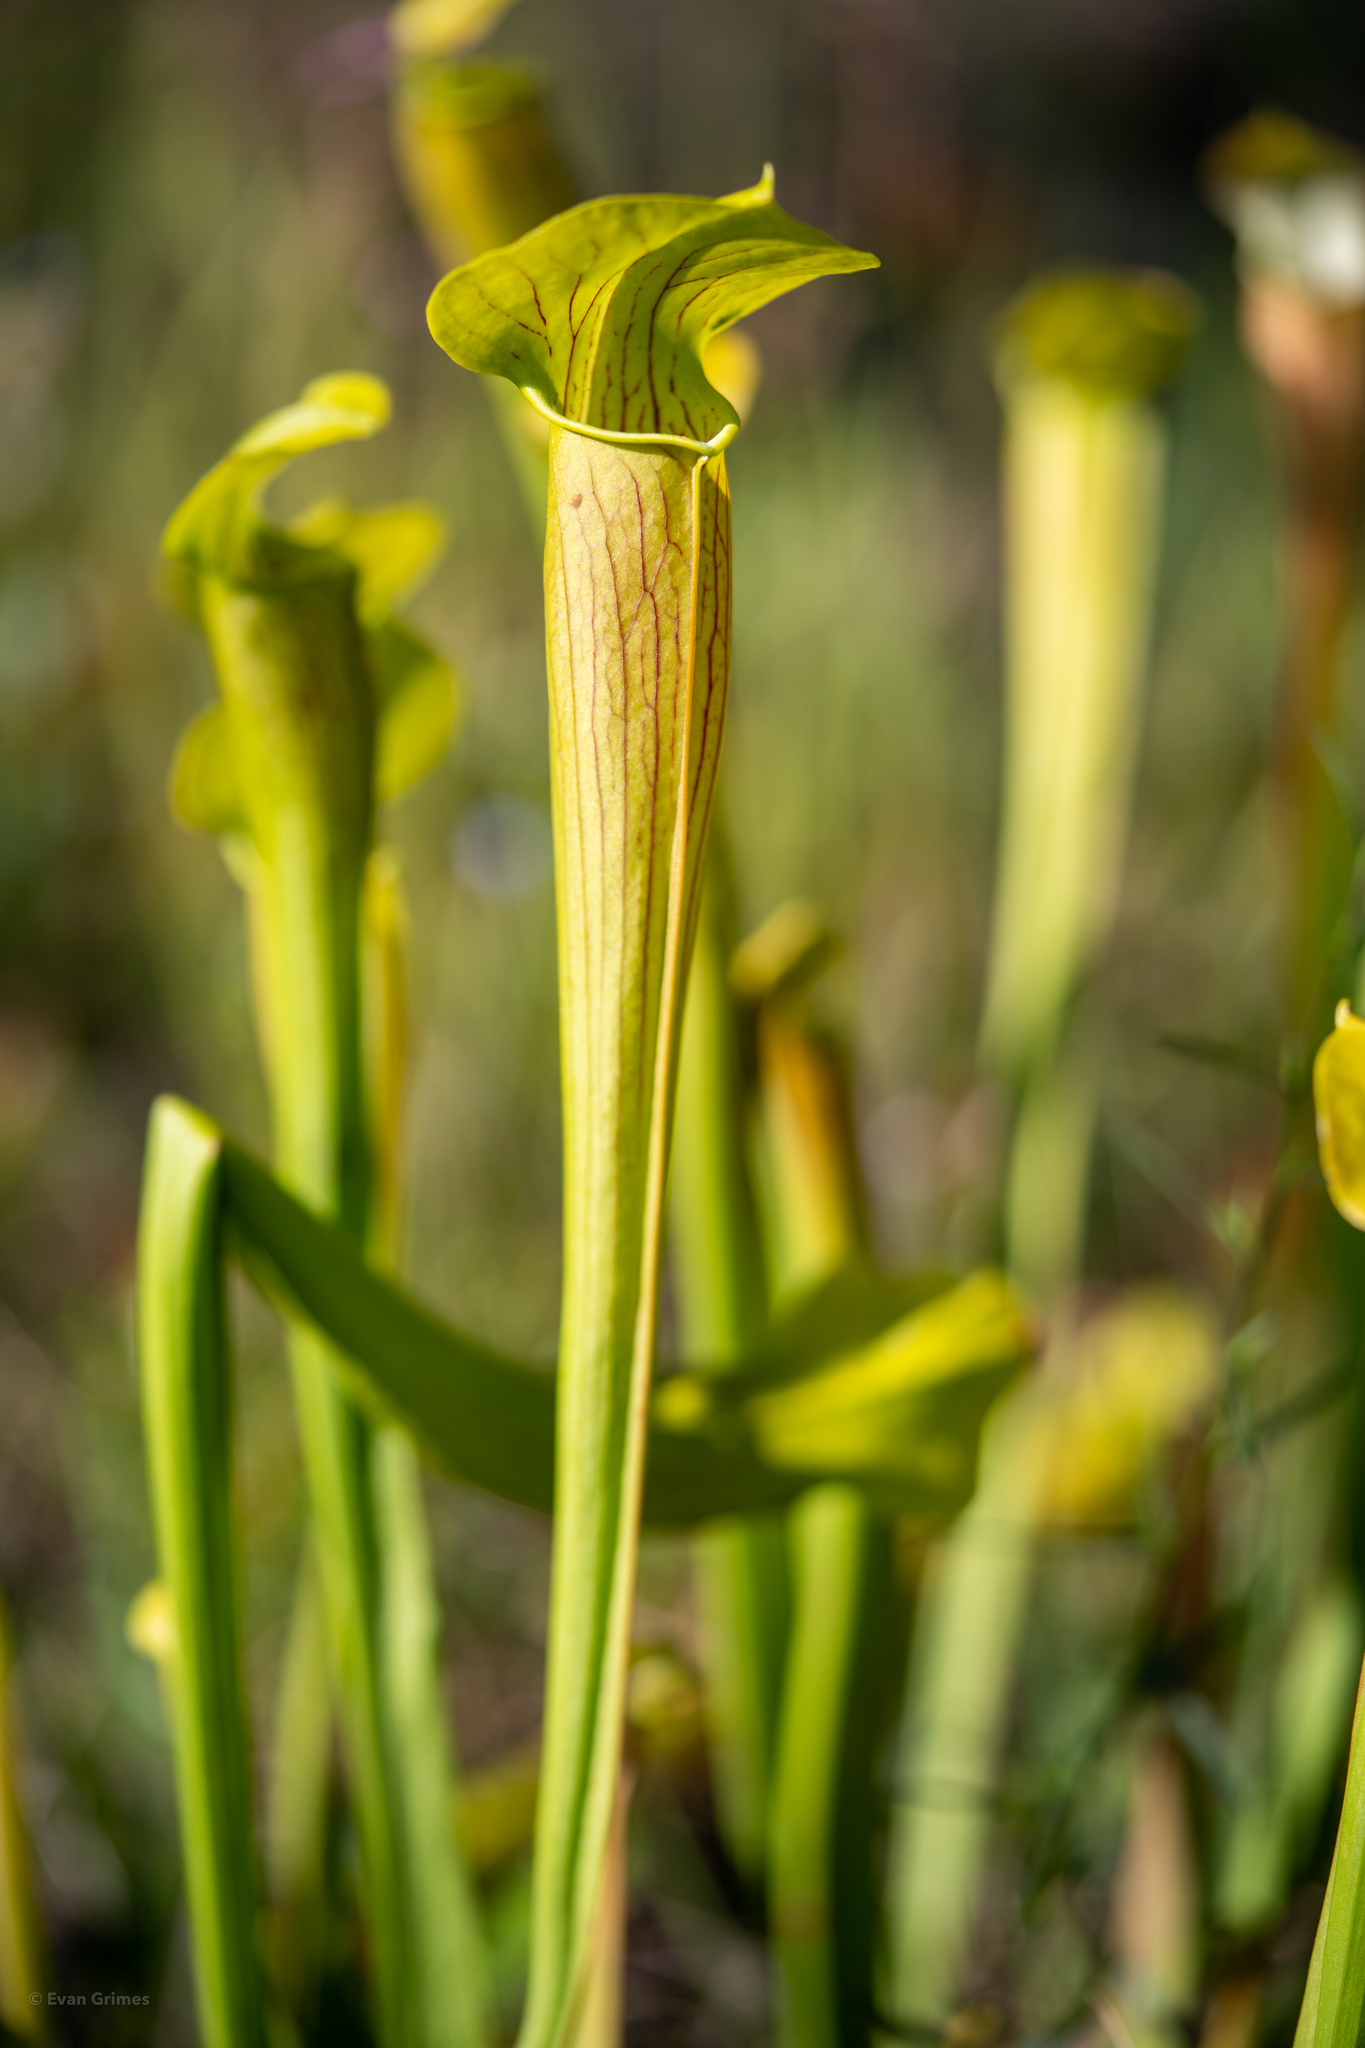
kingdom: Plantae
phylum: Tracheophyta
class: Magnoliopsida
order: Ericales
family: Sarraceniaceae
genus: Sarracenia
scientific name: Sarracenia alata
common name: Yellow trumpets
